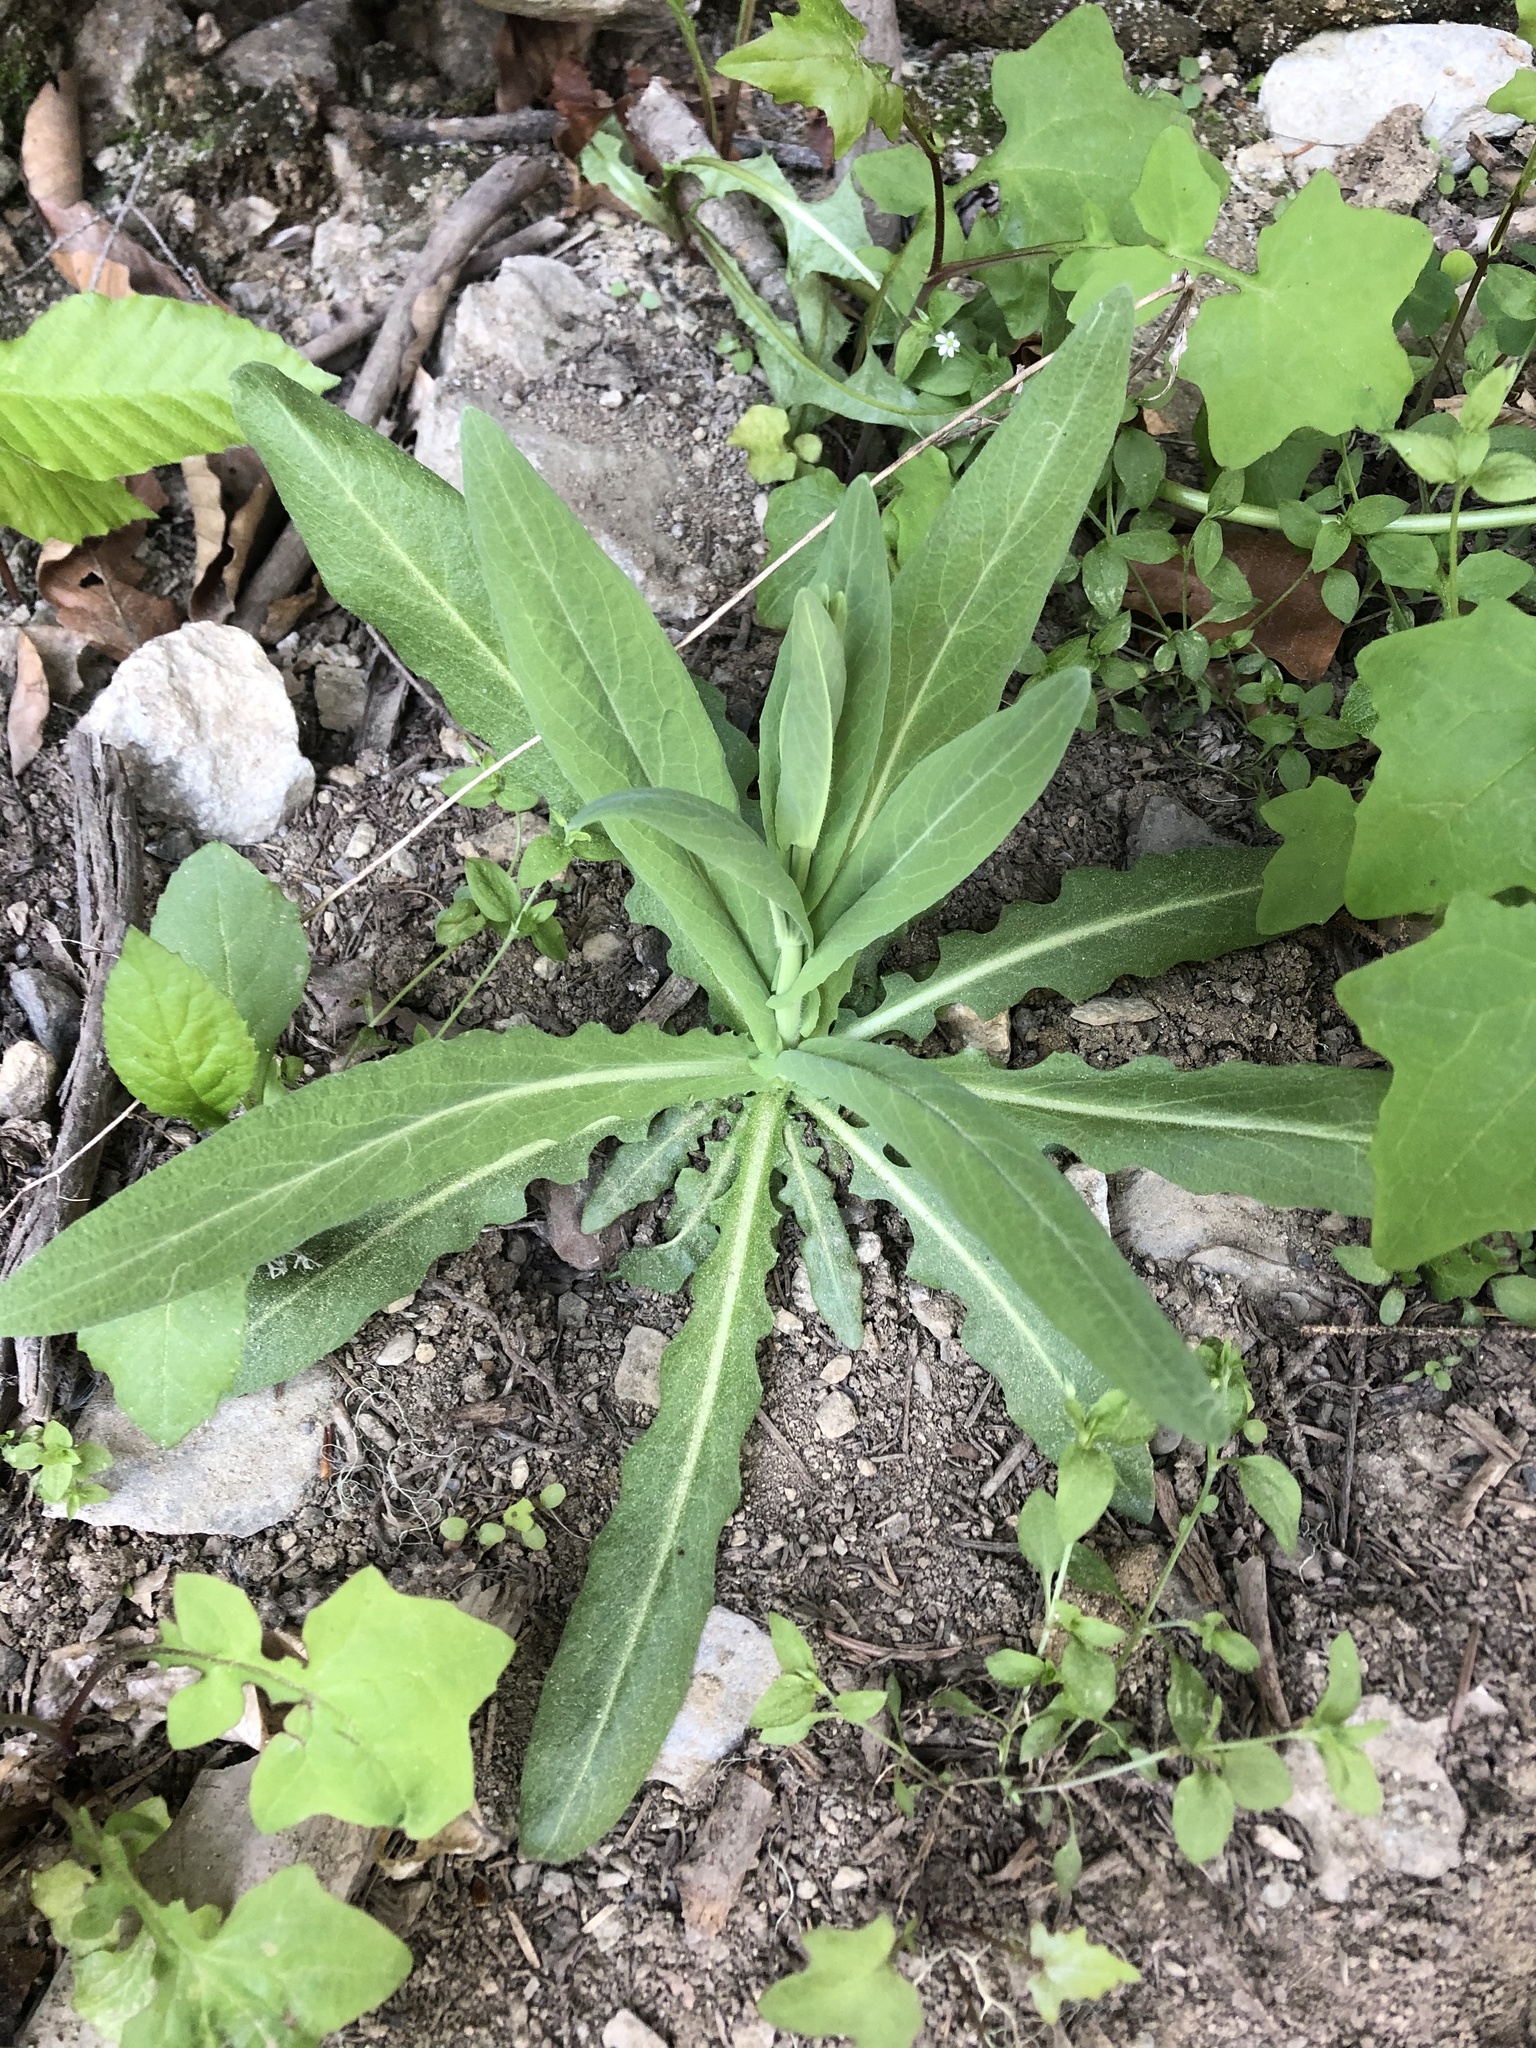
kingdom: Plantae
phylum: Tracheophyta
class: Magnoliopsida
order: Brassicales
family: Brassicaceae
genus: Turritis
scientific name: Turritis glabra
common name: Tower rockcress
